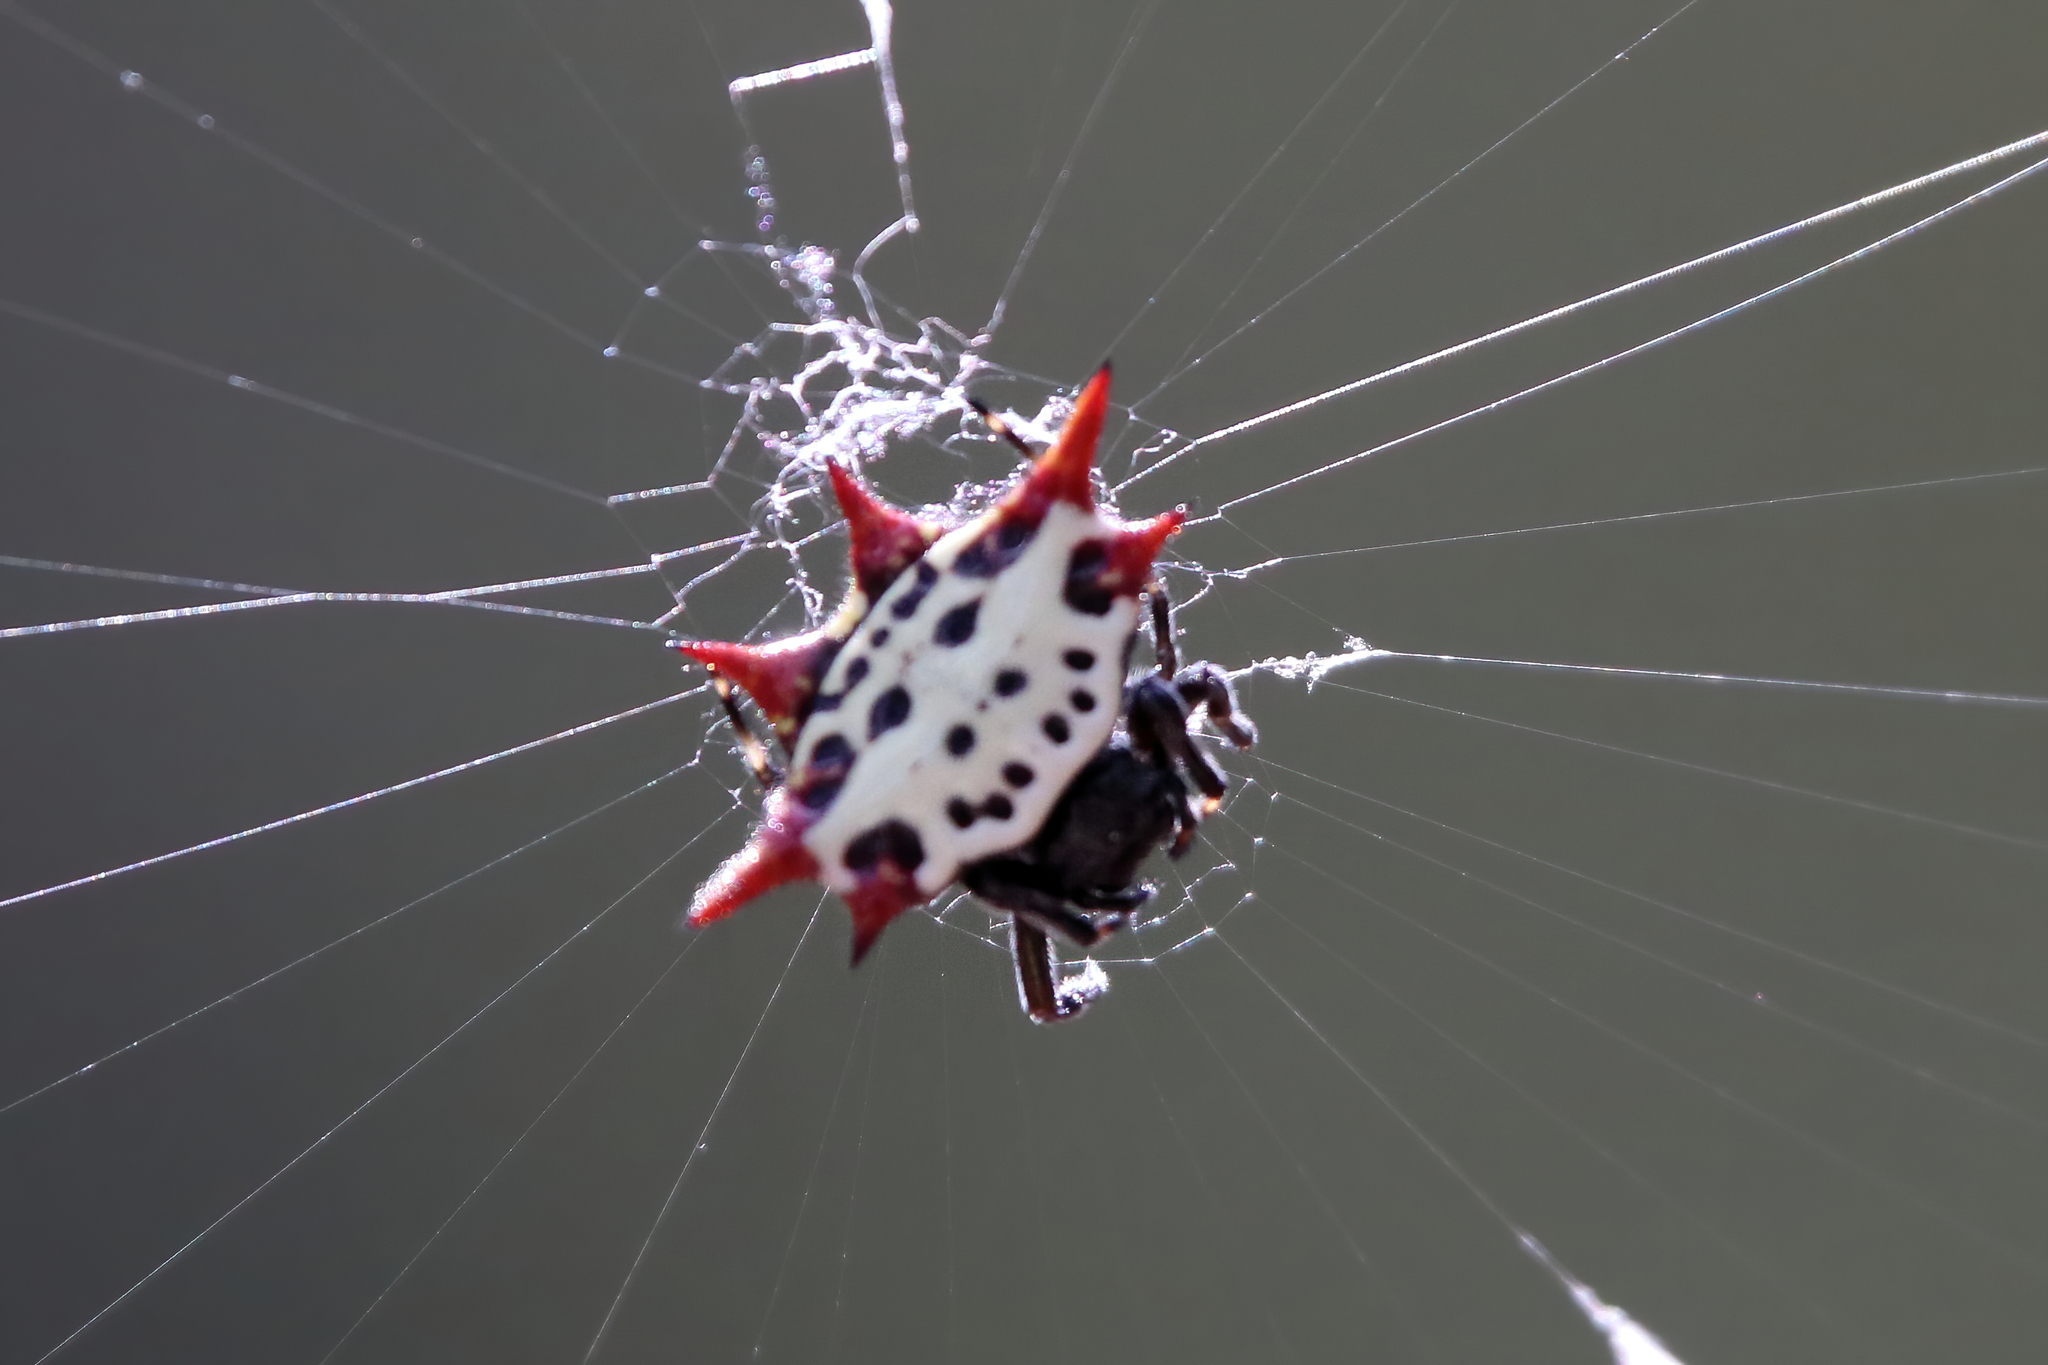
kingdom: Animalia
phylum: Arthropoda
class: Arachnida
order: Araneae
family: Araneidae
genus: Gasteracantha
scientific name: Gasteracantha cancriformis
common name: Orb weavers
